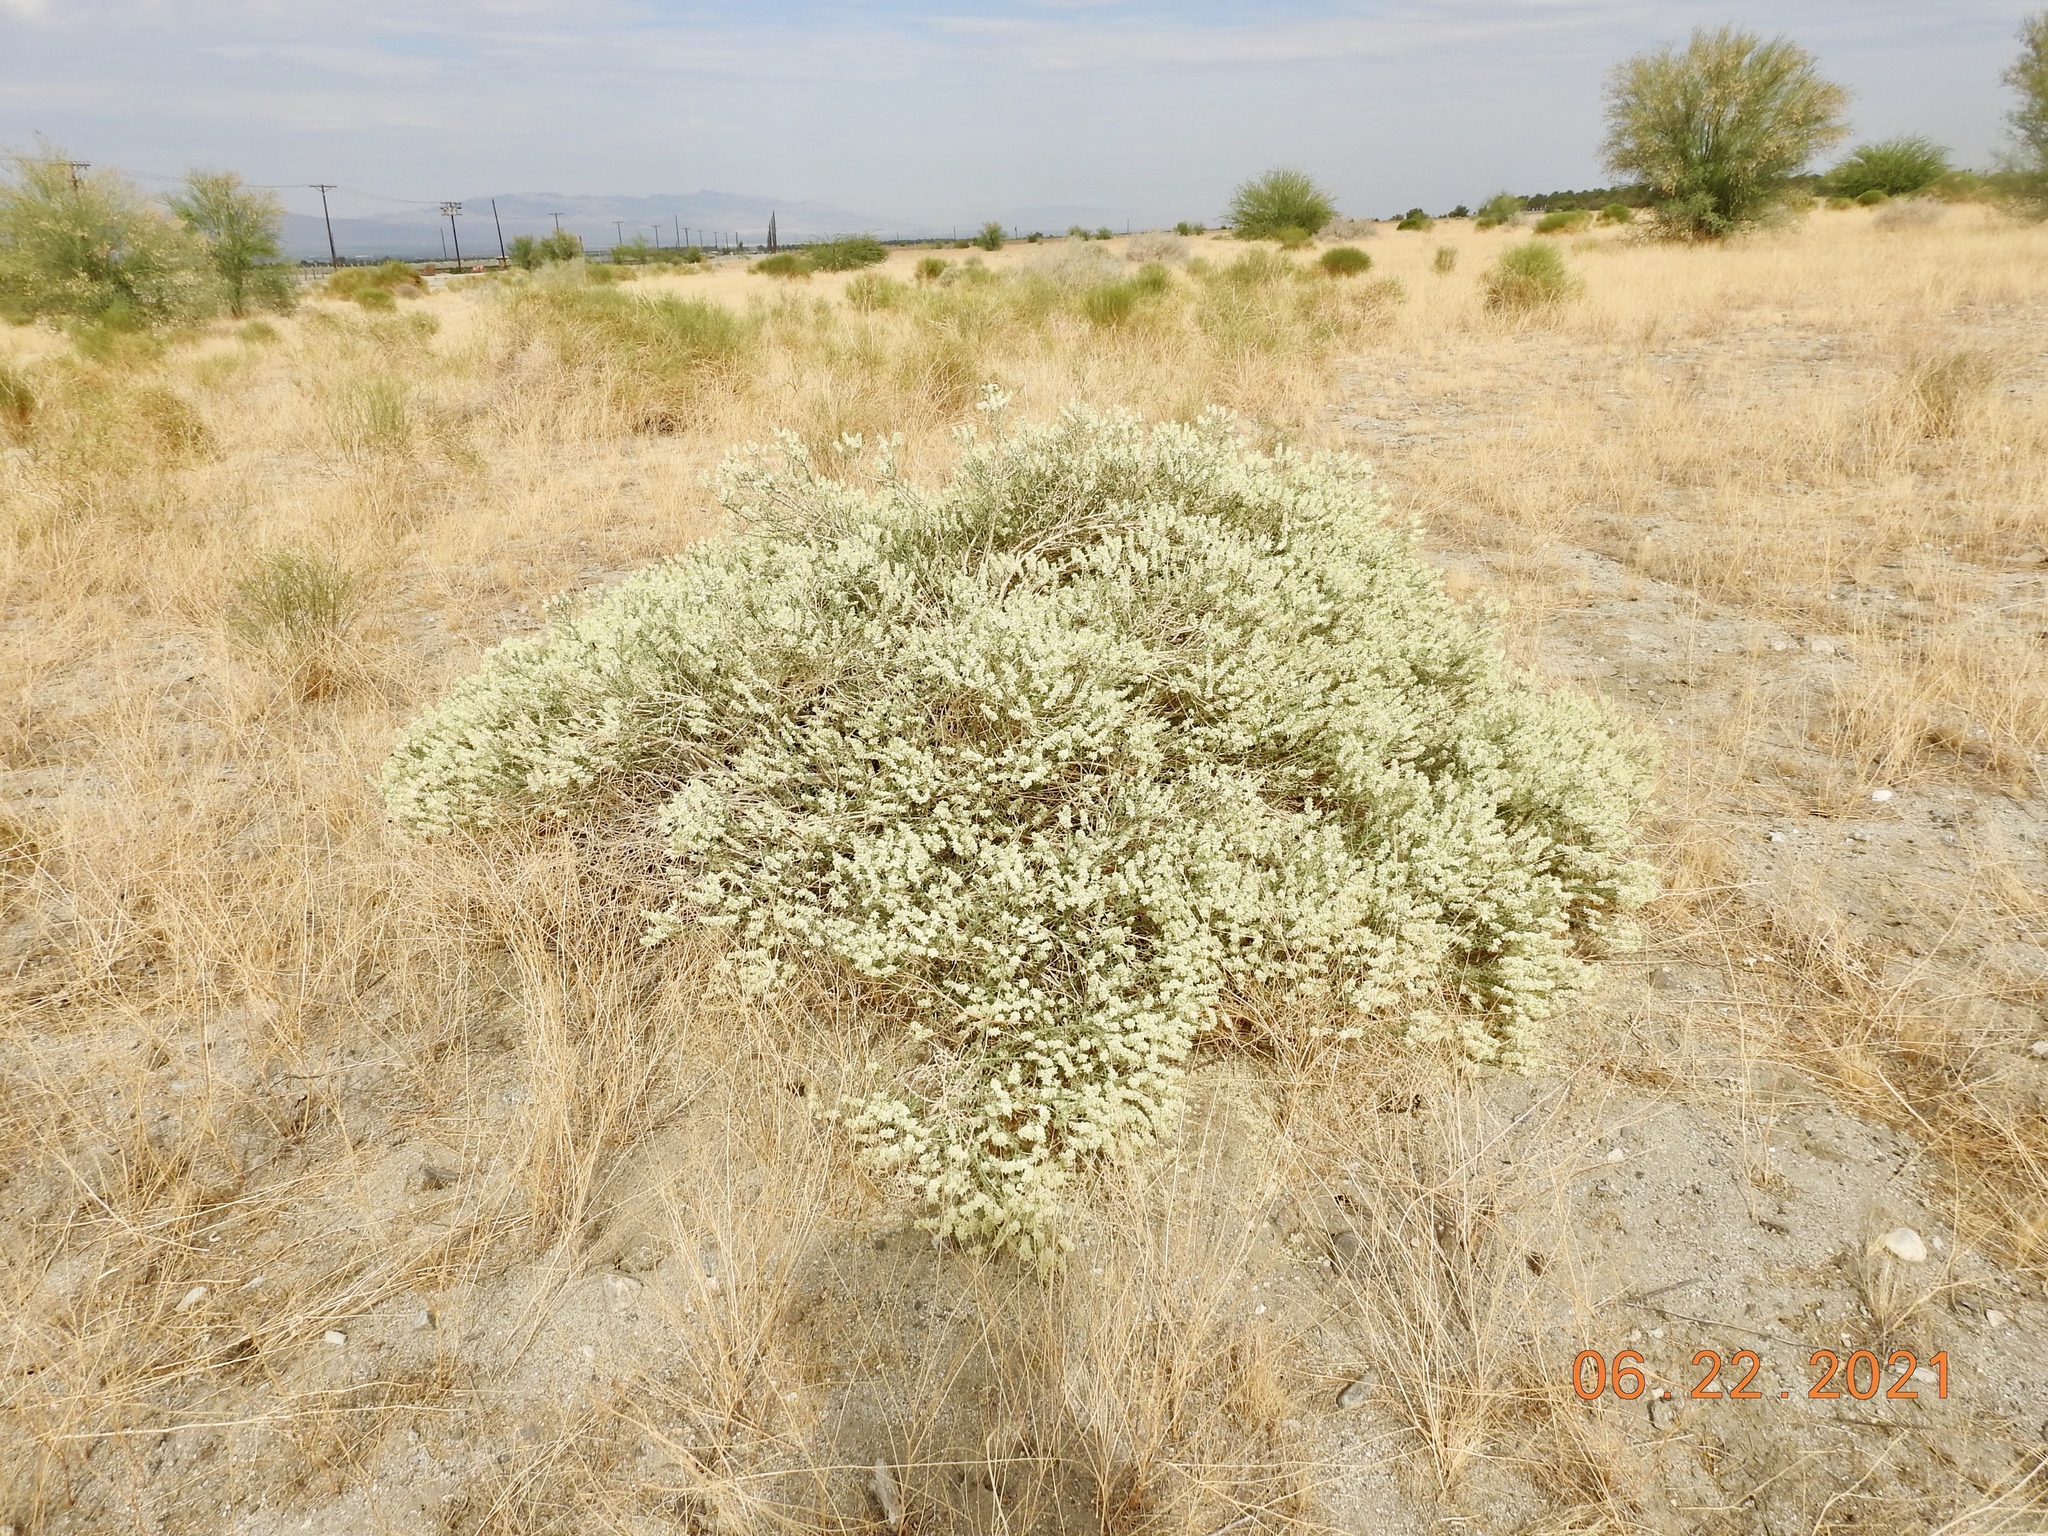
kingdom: Plantae
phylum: Tracheophyta
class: Magnoliopsida
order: Cornales
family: Loasaceae
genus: Petalonyx
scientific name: Petalonyx thurberi
